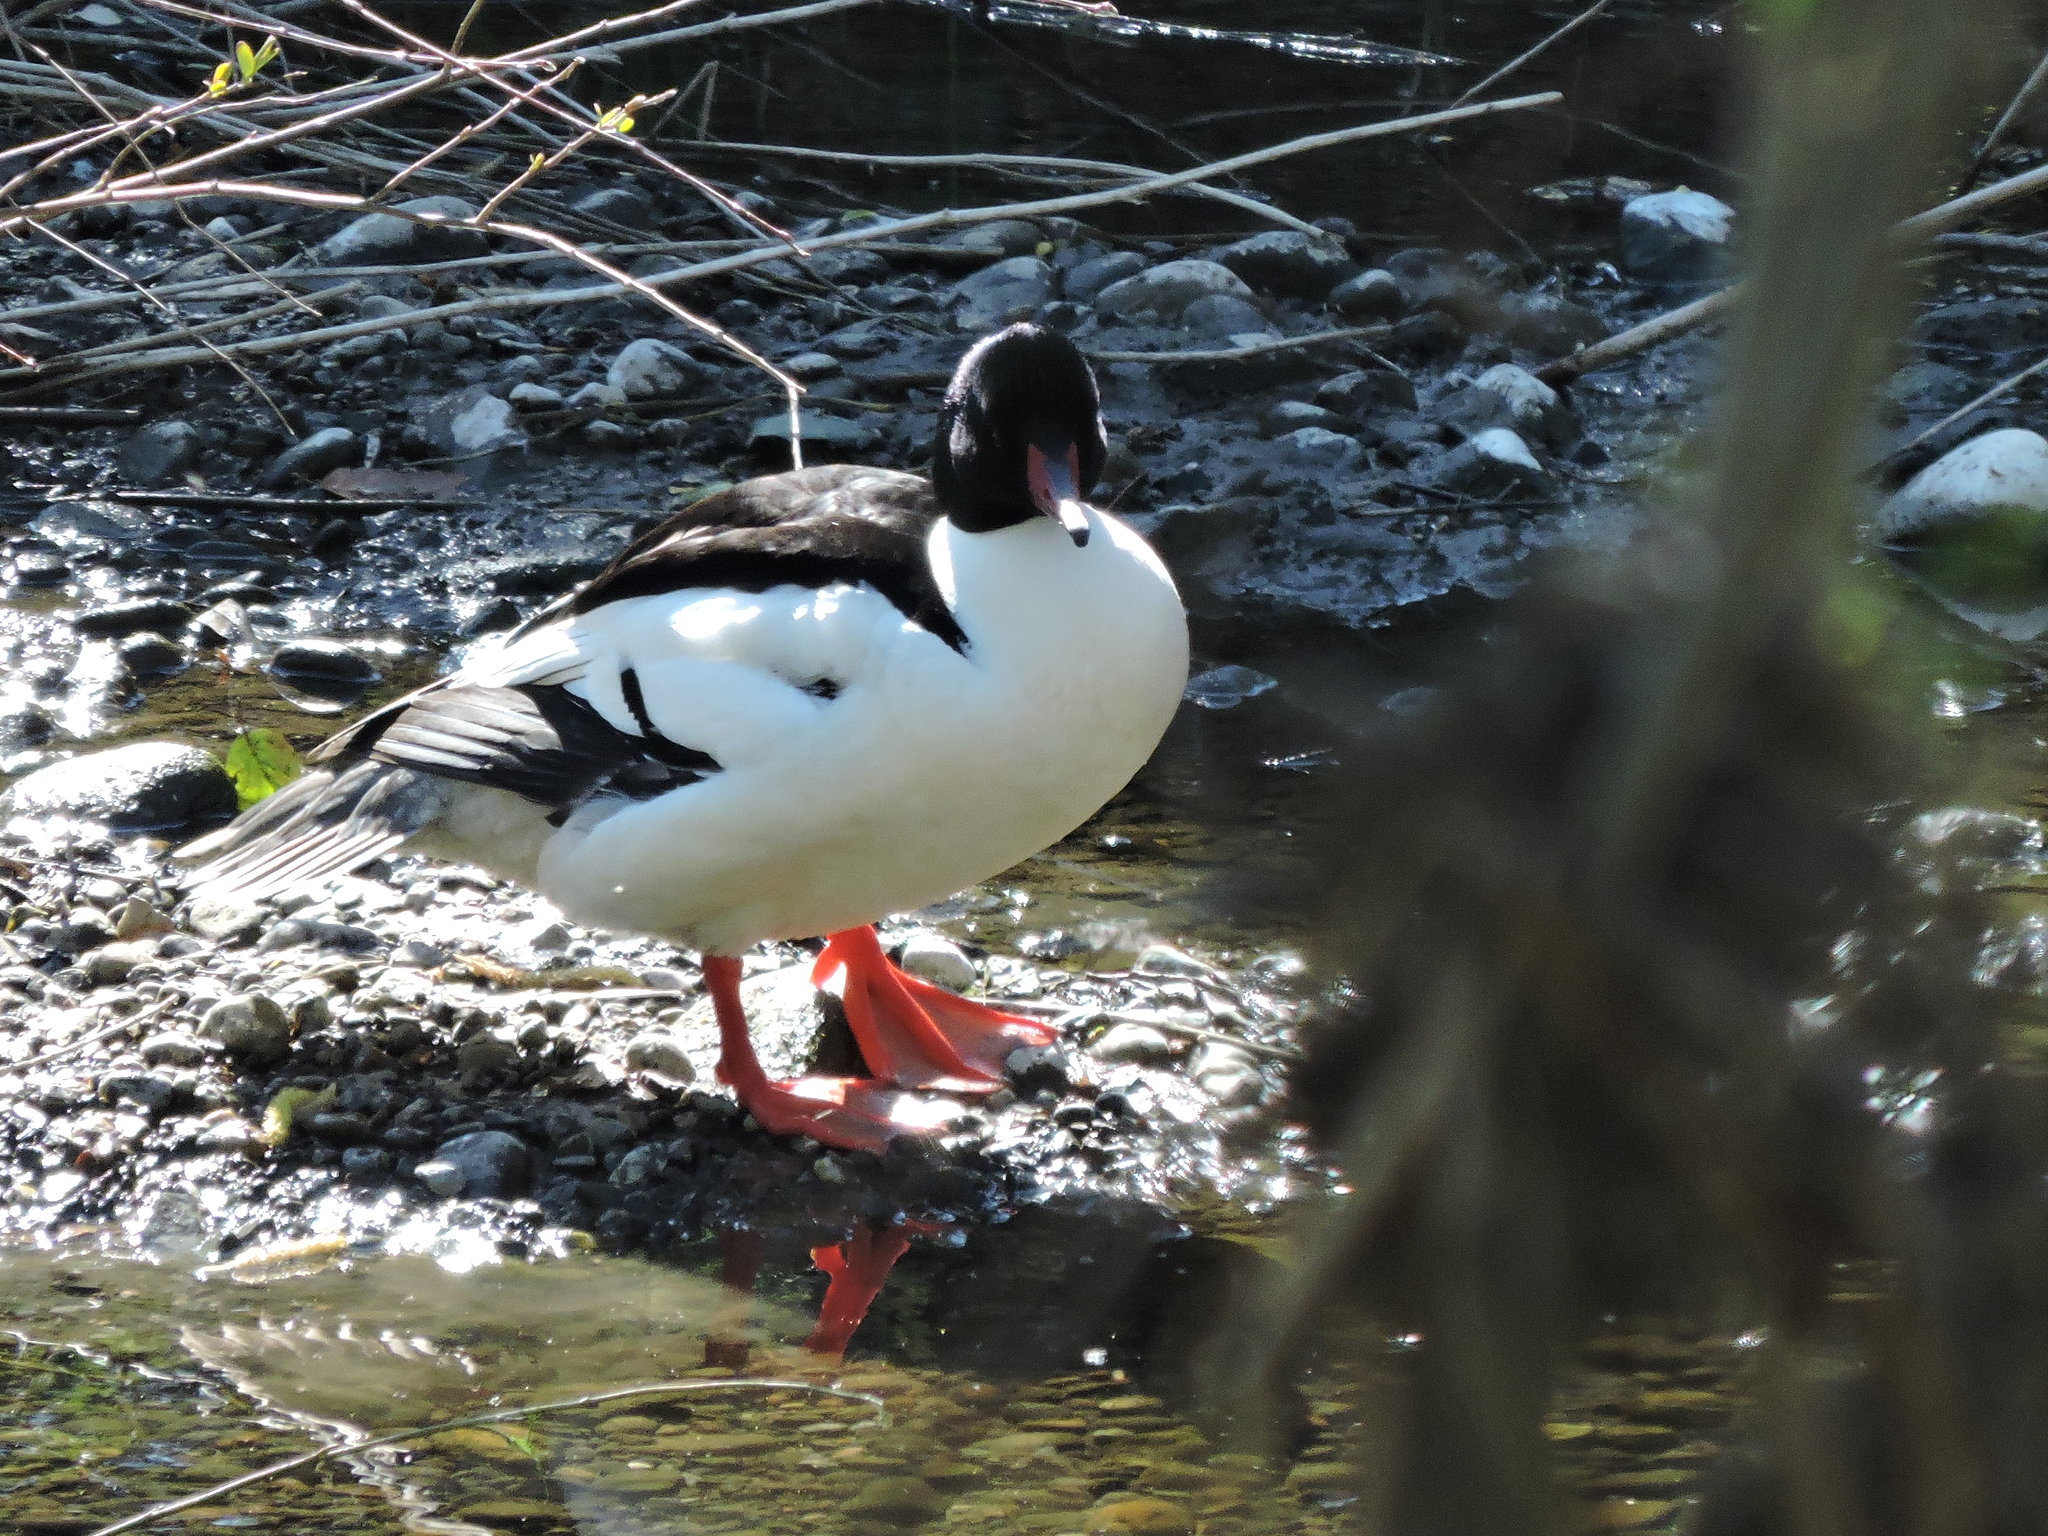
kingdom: Animalia
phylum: Chordata
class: Aves
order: Anseriformes
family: Anatidae
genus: Mergus
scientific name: Mergus merganser
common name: Common merganser
